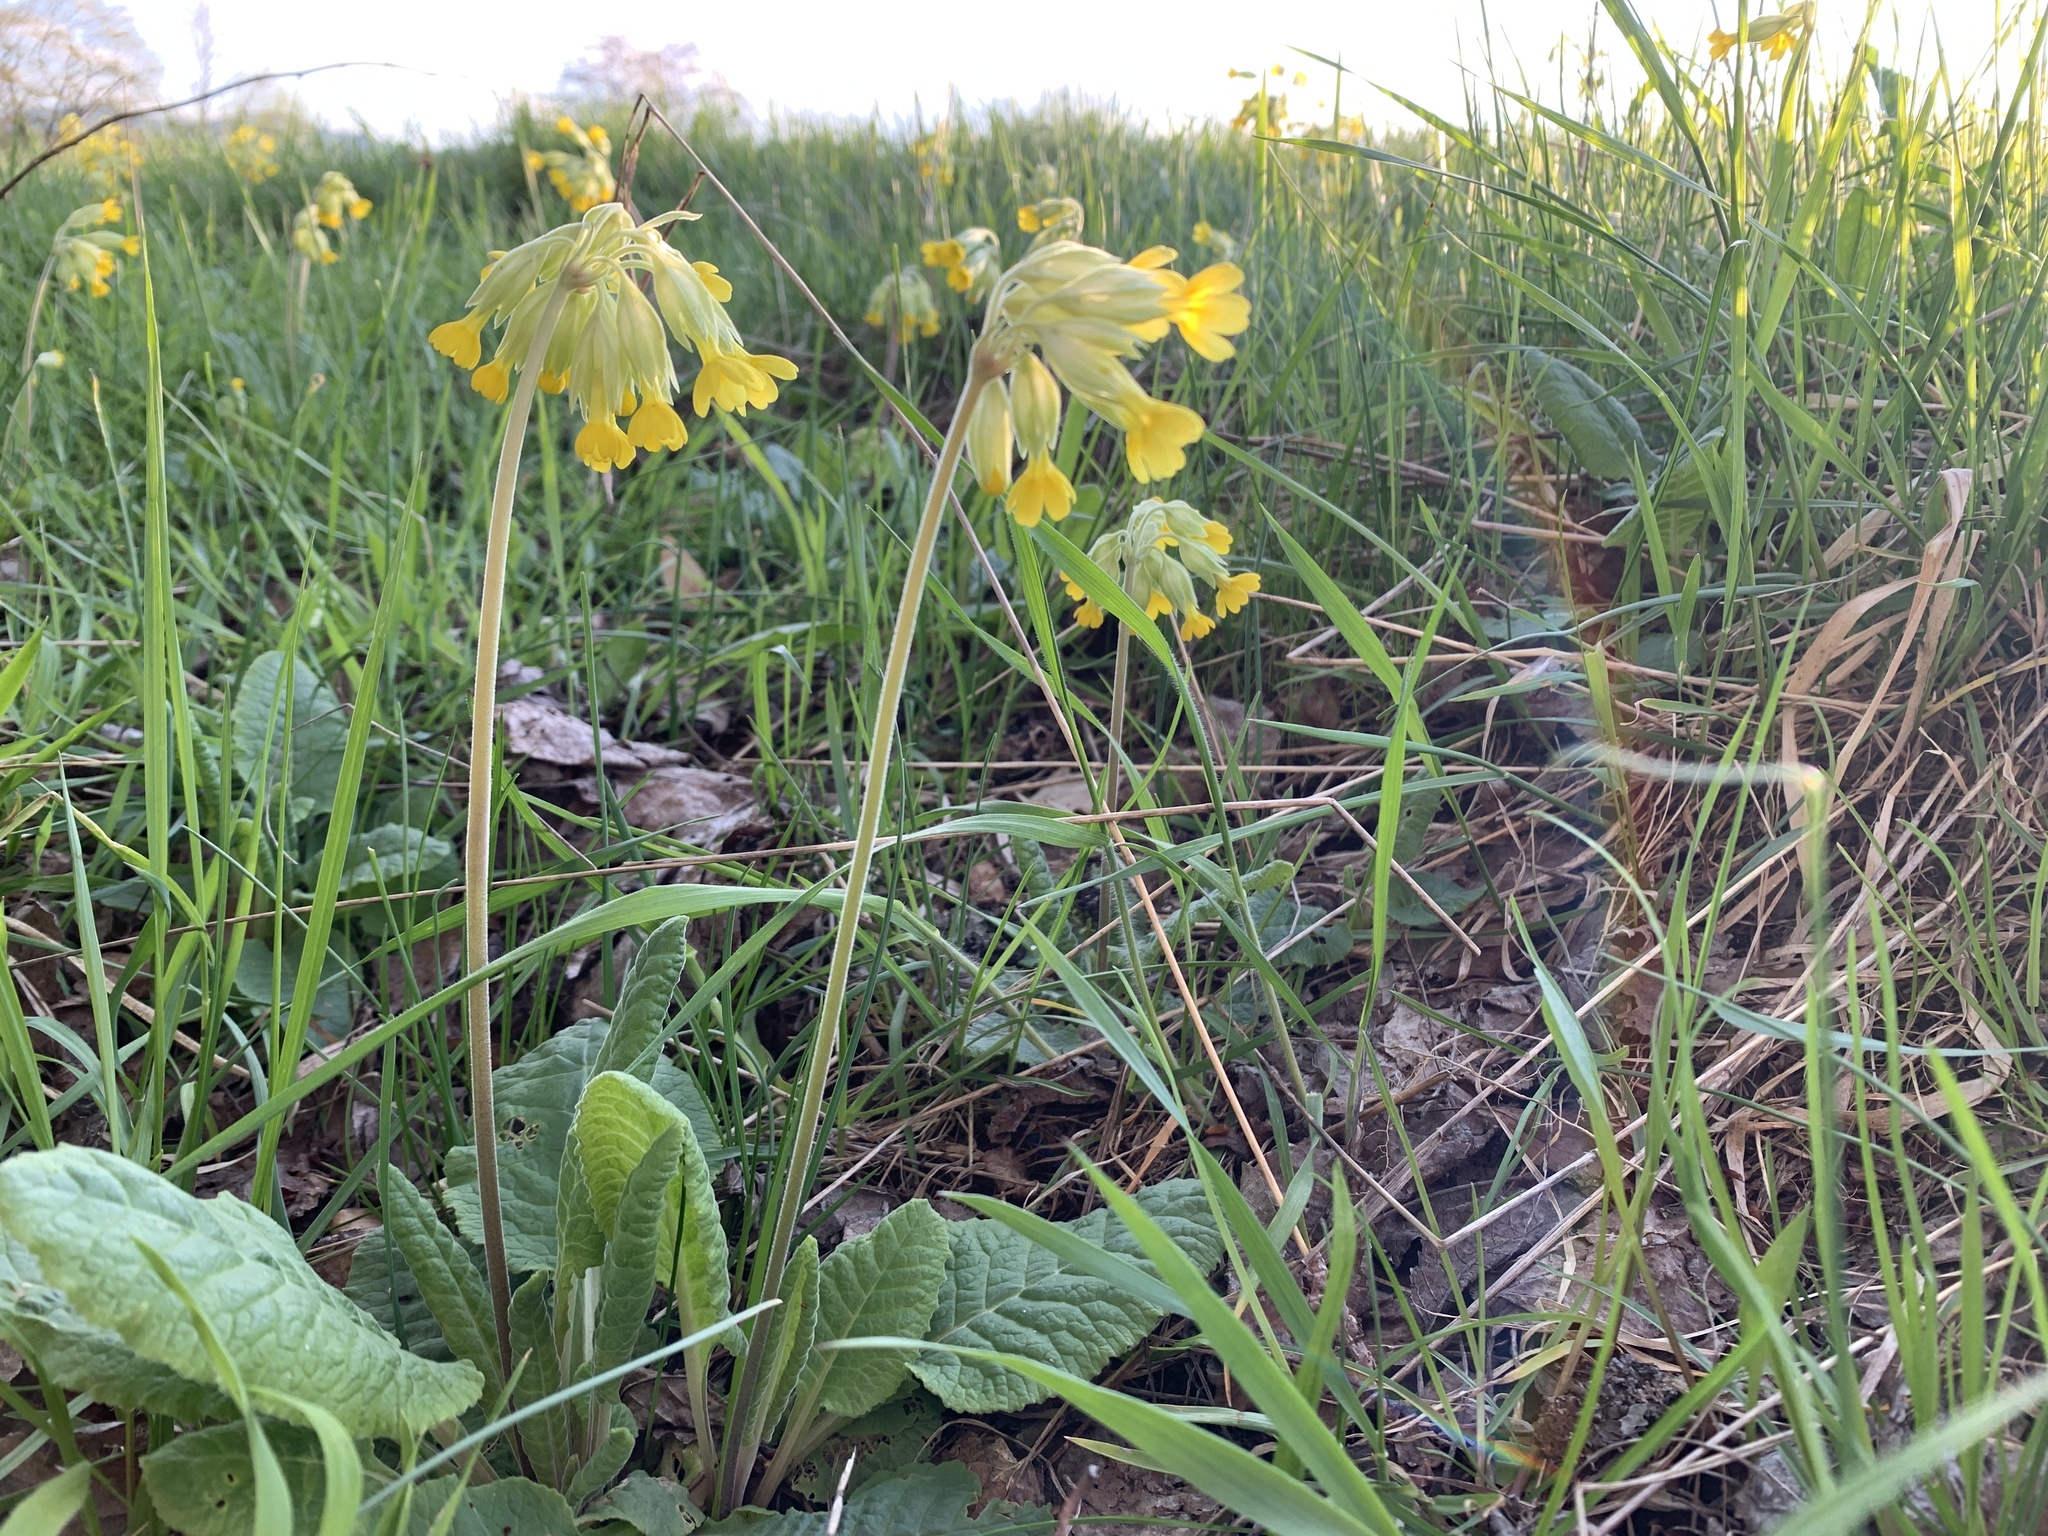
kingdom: Plantae
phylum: Tracheophyta
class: Magnoliopsida
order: Ericales
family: Primulaceae
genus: Primula
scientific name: Primula veris
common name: Cowslip
